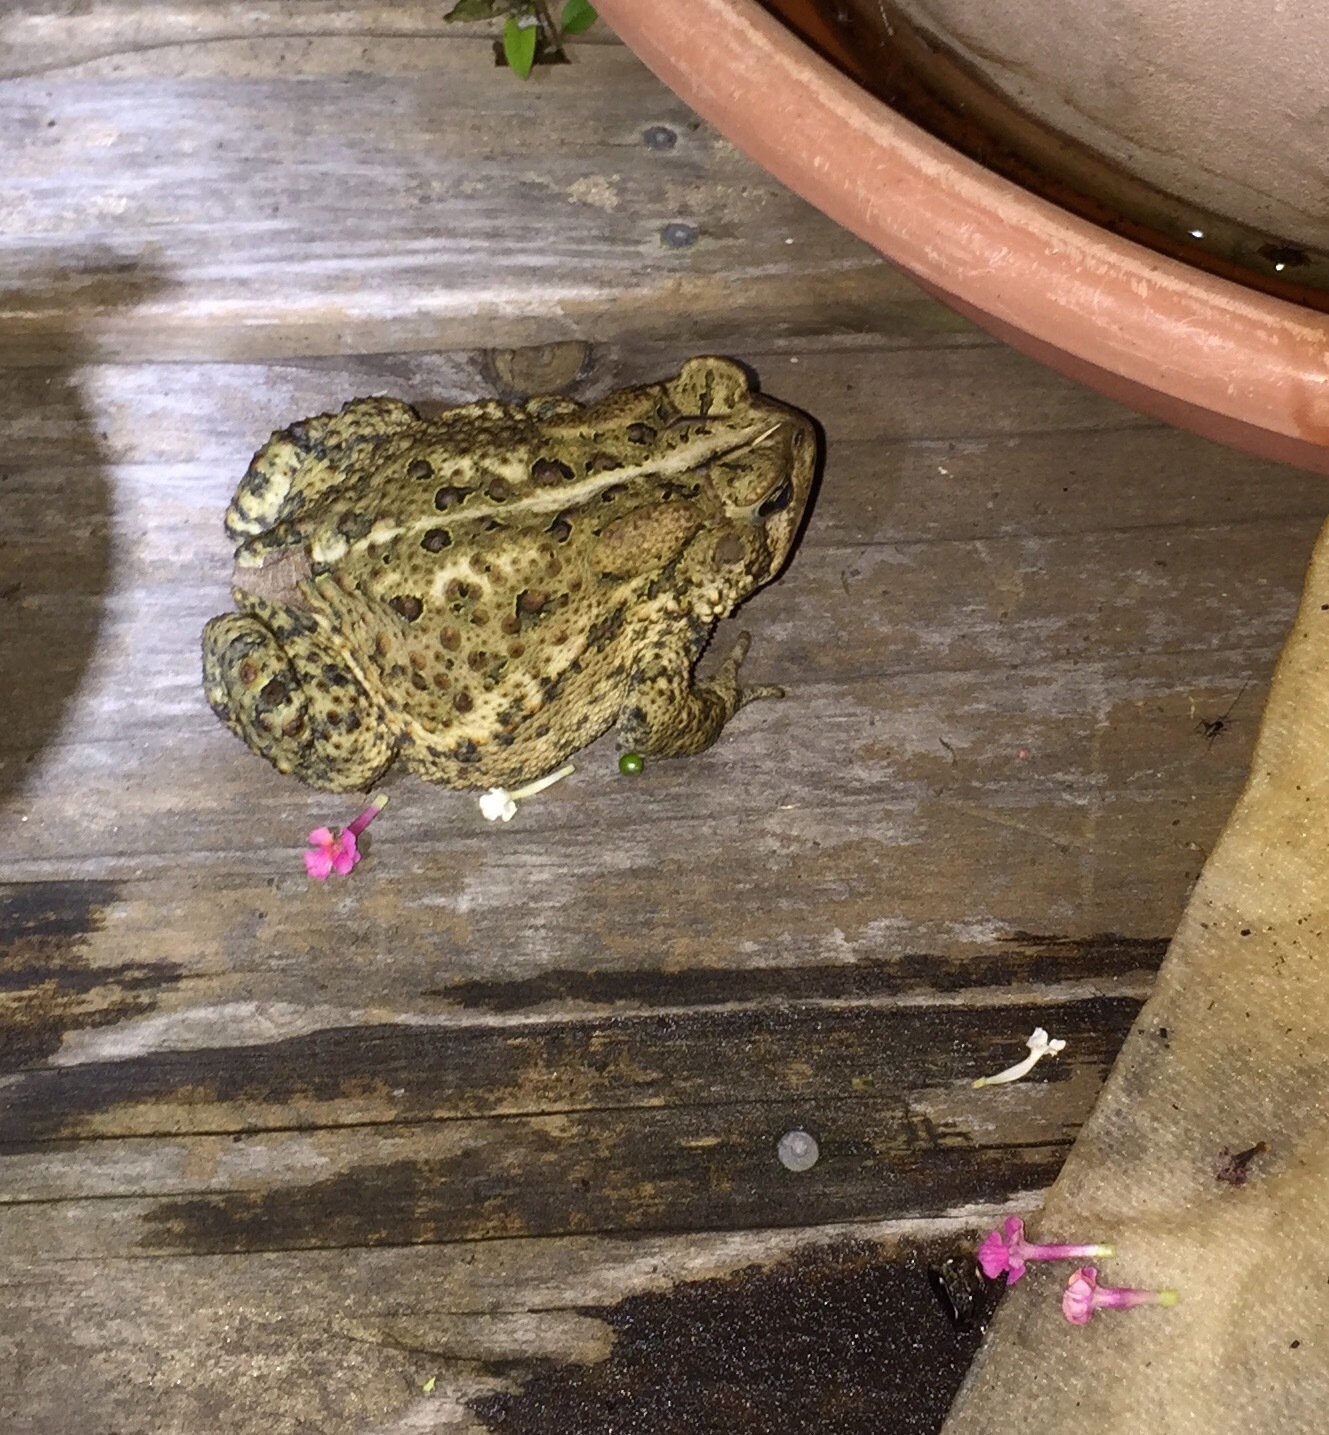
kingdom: Animalia
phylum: Chordata
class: Amphibia
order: Anura
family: Bufonidae
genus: Anaxyrus
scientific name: Anaxyrus americanus
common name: American toad
